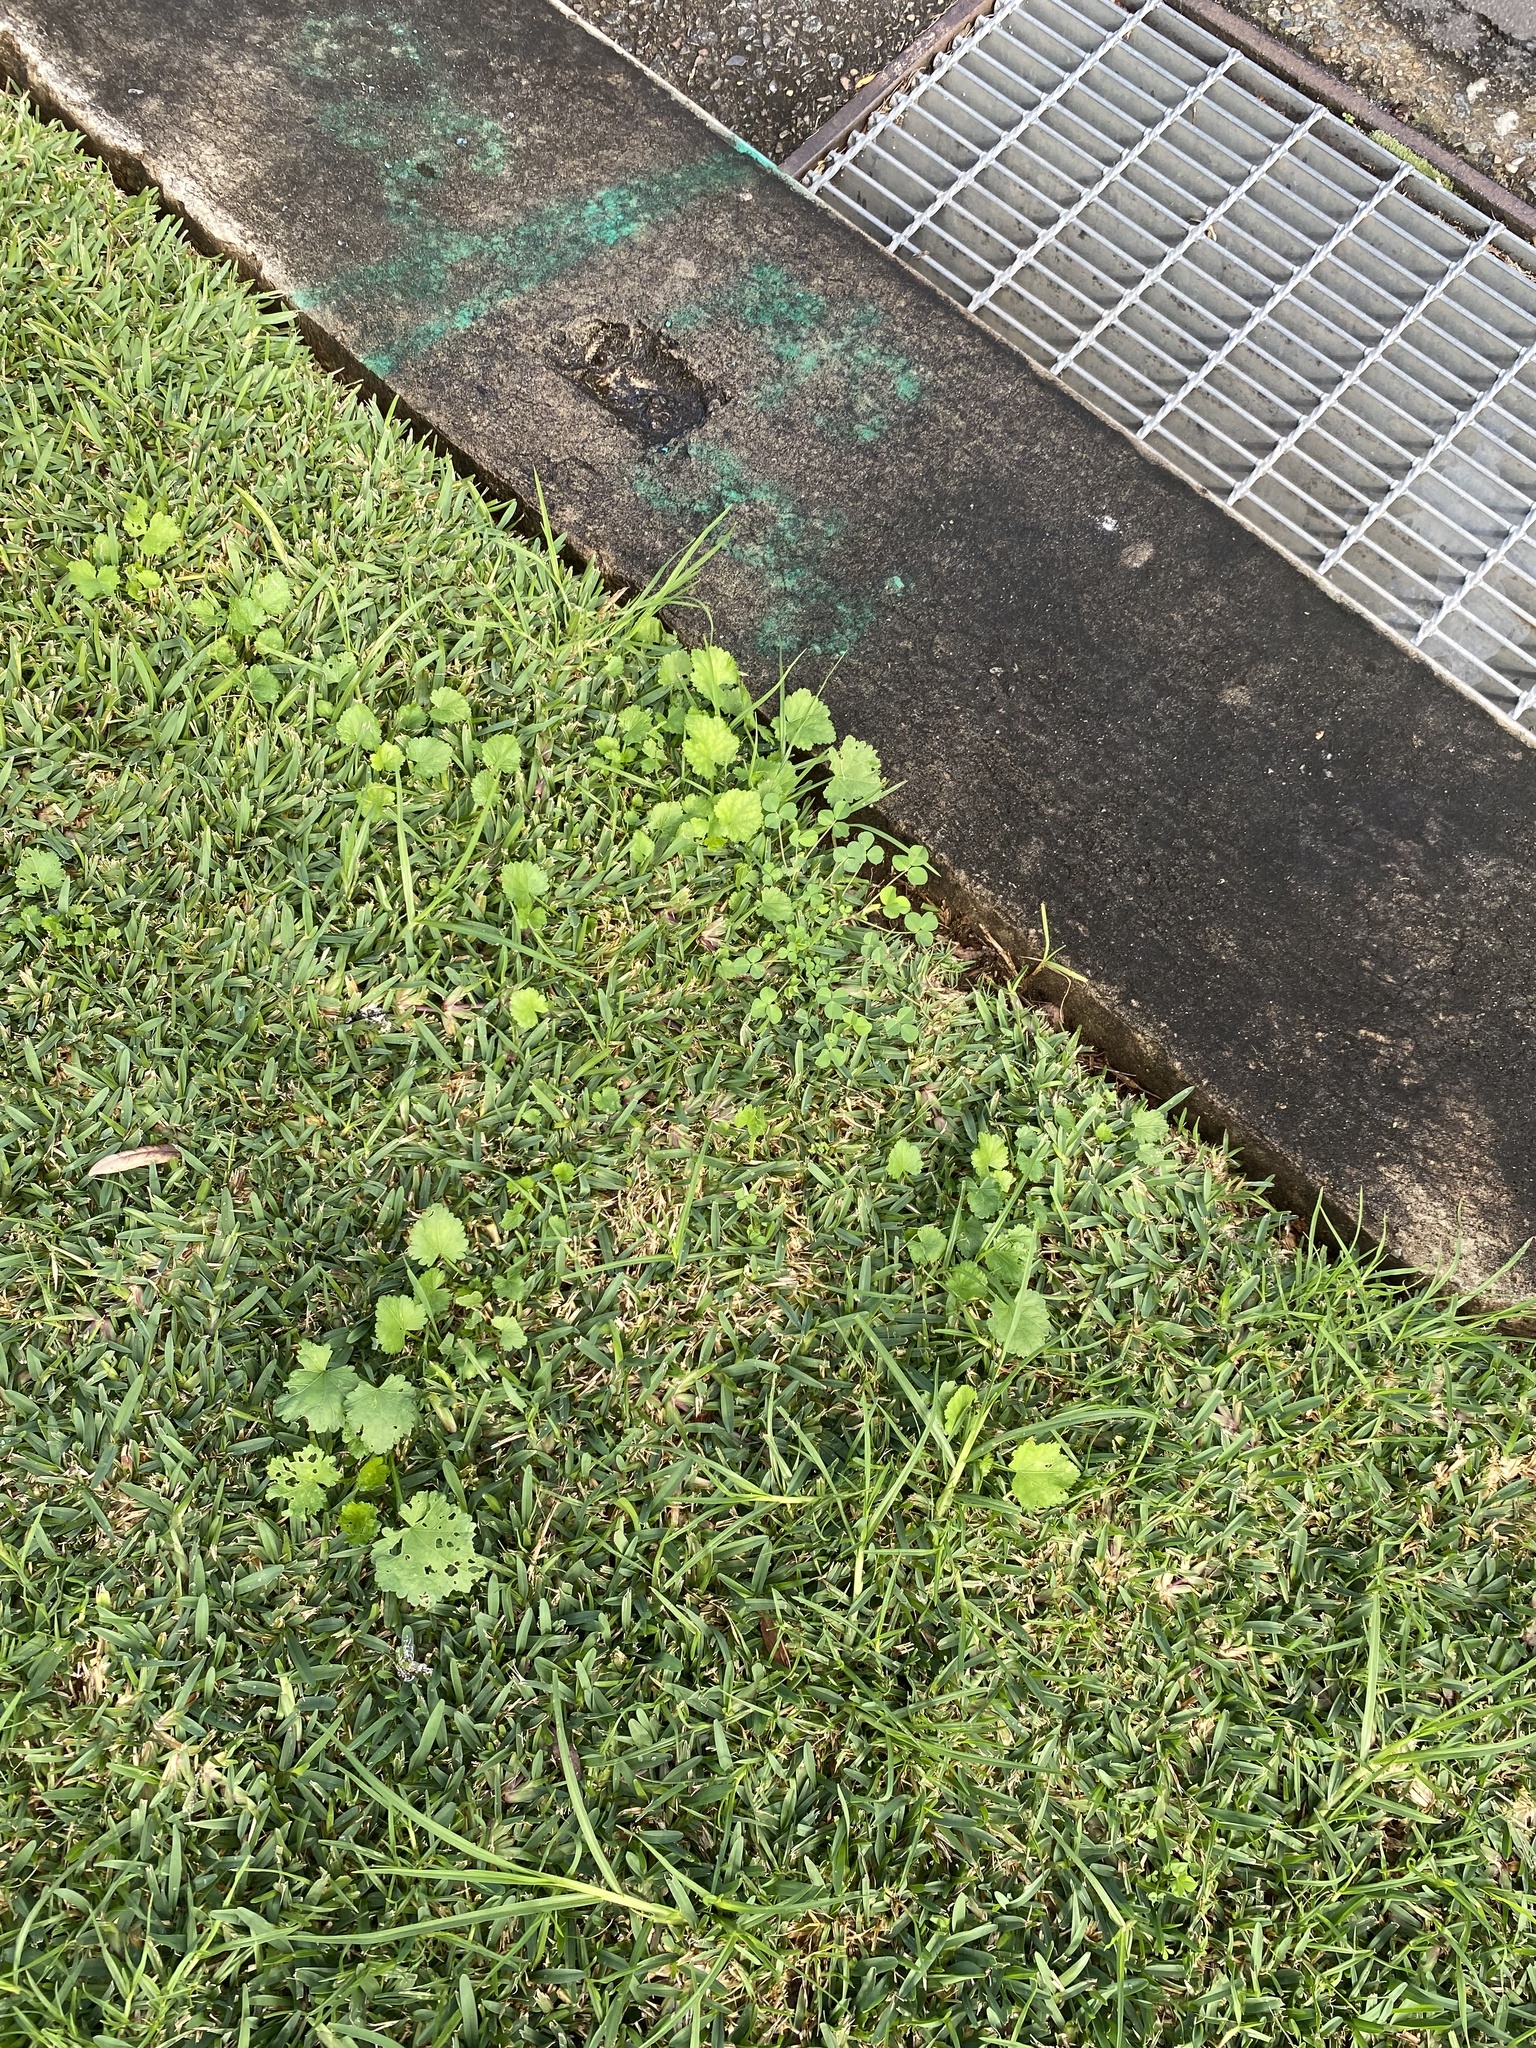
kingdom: Plantae
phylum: Tracheophyta
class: Magnoliopsida
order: Malvales
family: Malvaceae
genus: Modiola
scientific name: Modiola caroliniana
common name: Carolina bristlemallow
